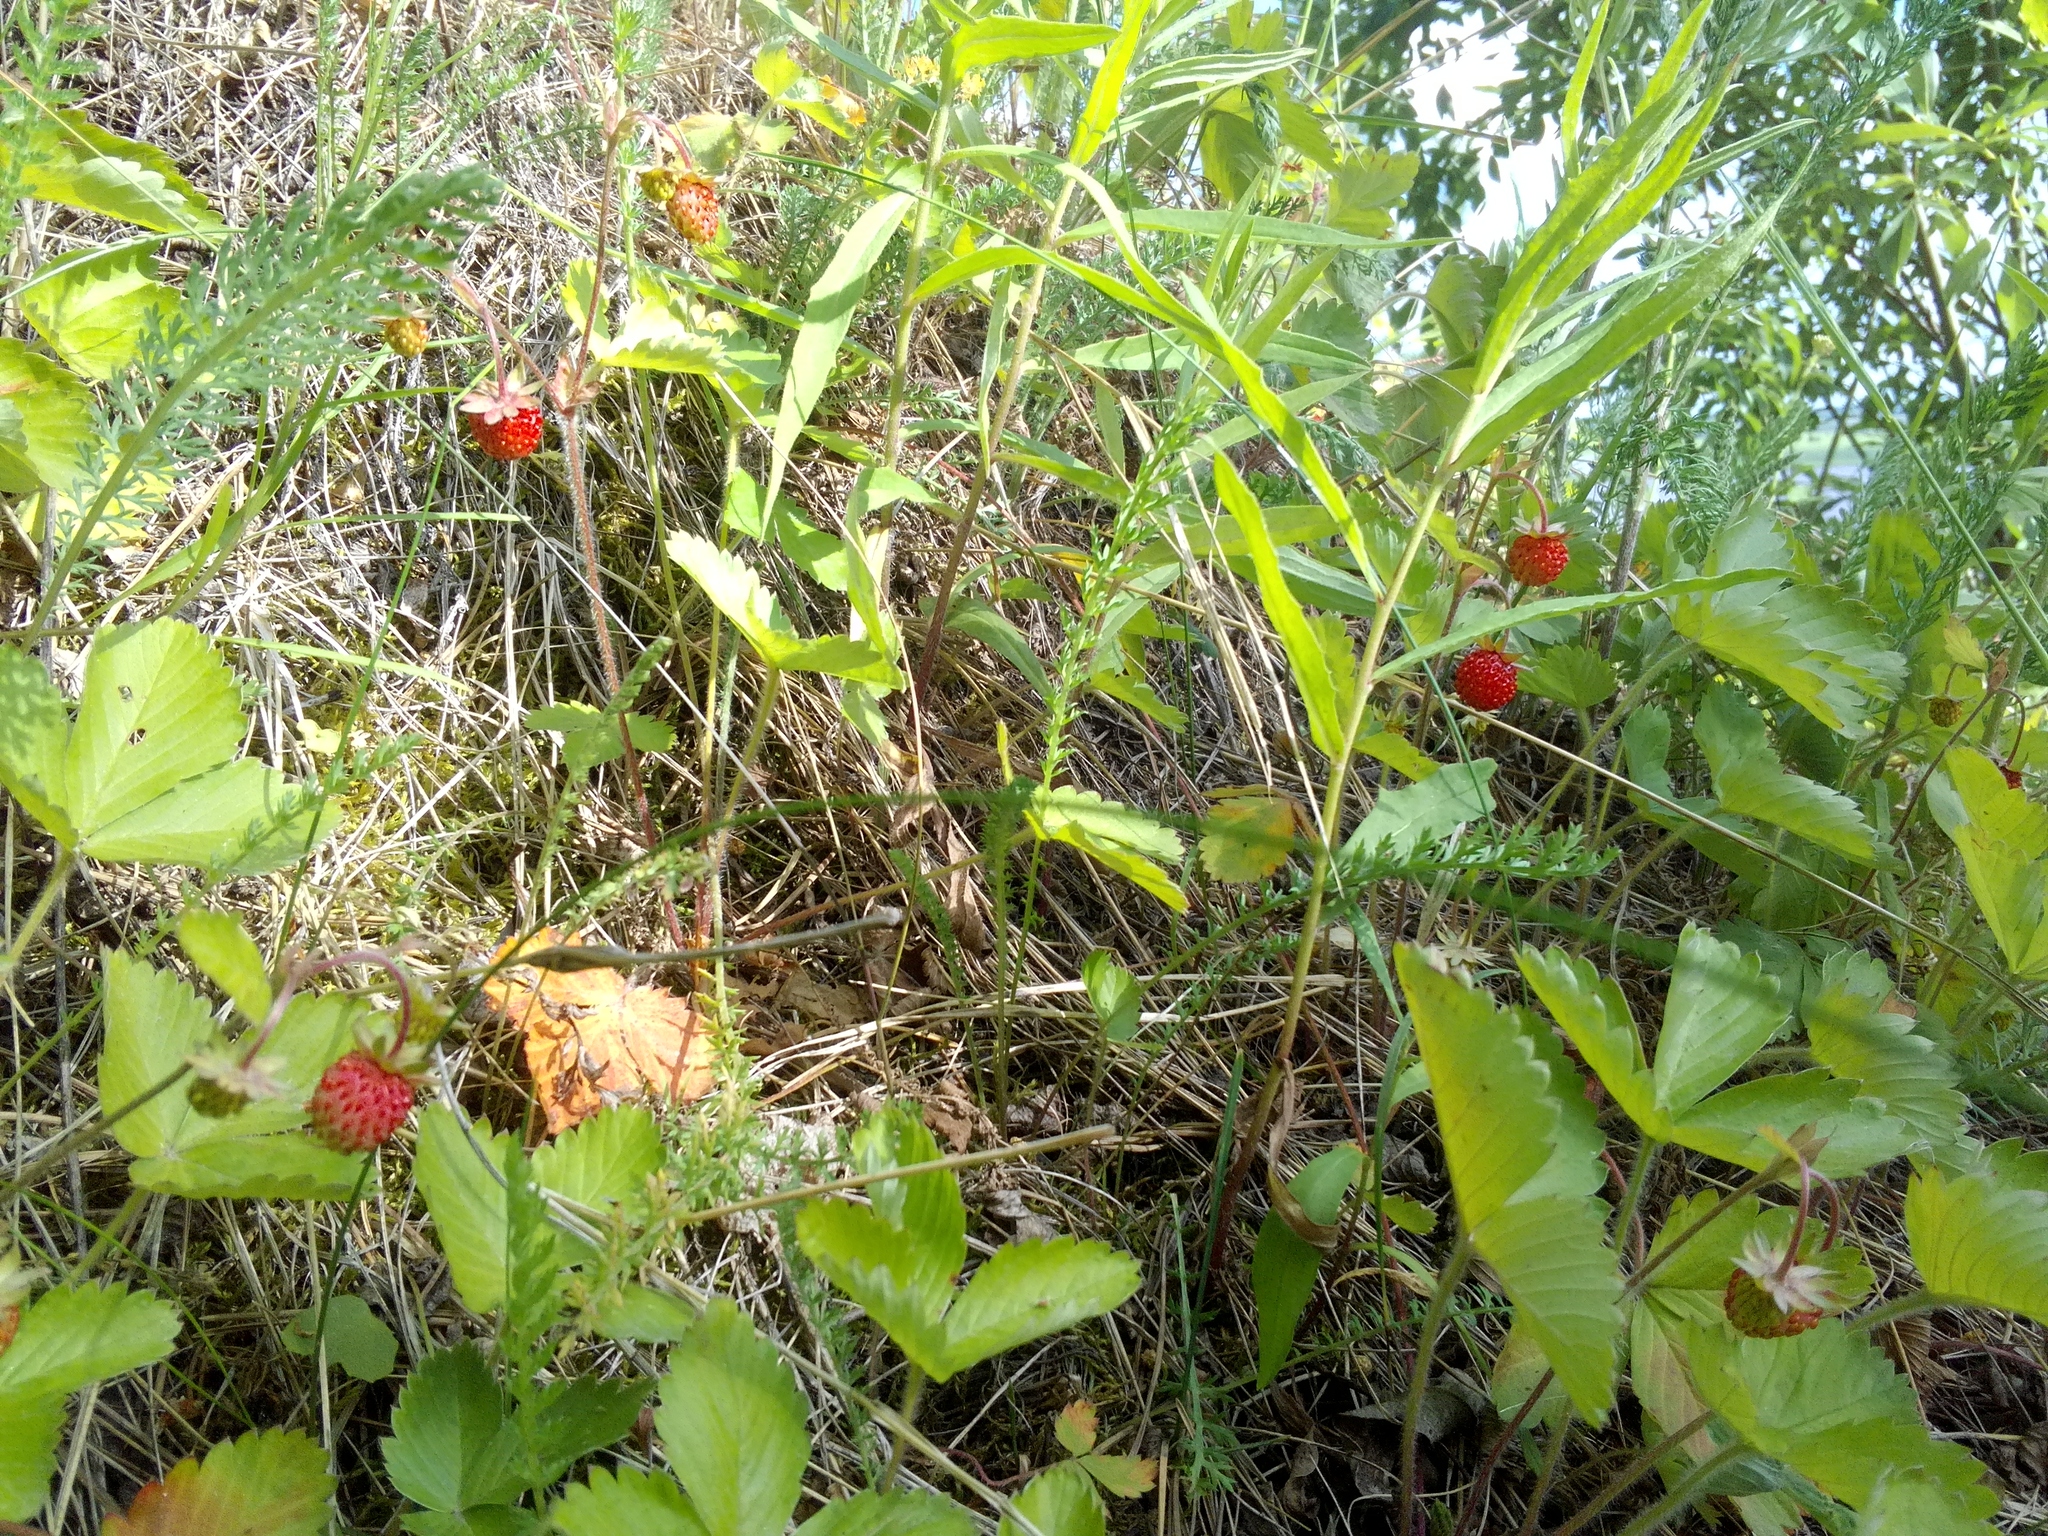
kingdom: Plantae
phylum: Tracheophyta
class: Magnoliopsida
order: Rosales
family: Rosaceae
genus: Fragaria
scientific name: Fragaria vesca
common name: Wild strawberry
